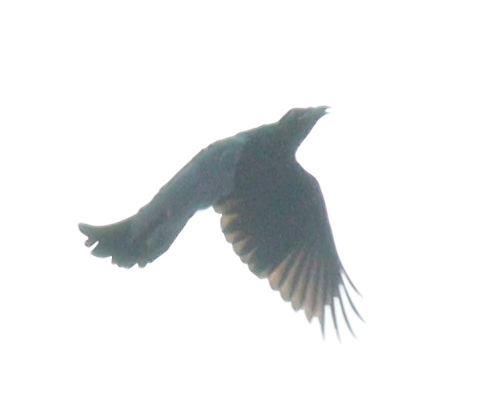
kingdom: Animalia
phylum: Chordata
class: Aves
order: Passeriformes
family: Dicruridae
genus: Dicrurus
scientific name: Dicrurus hottentottus
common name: Hair-crested drongo
